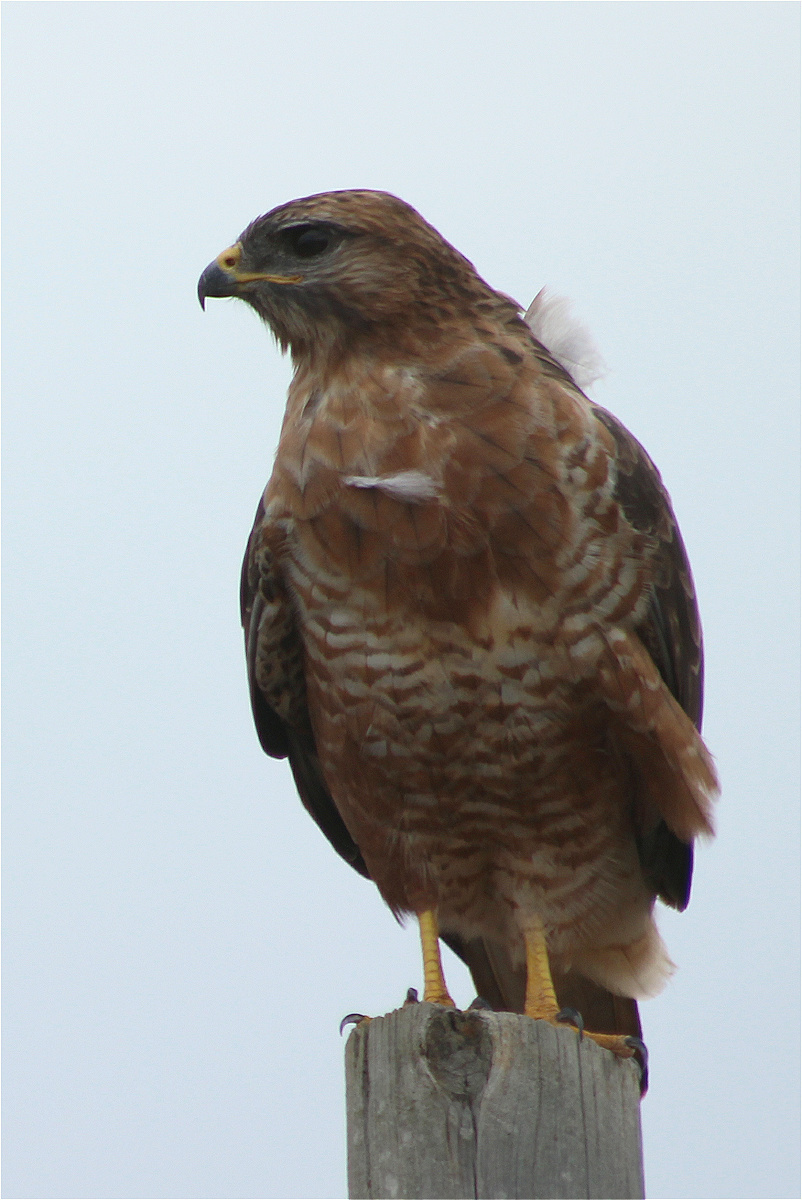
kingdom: Animalia
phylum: Chordata
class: Aves
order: Accipitriformes
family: Accipitridae
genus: Buteo
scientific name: Buteo buteo
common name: Common buzzard
